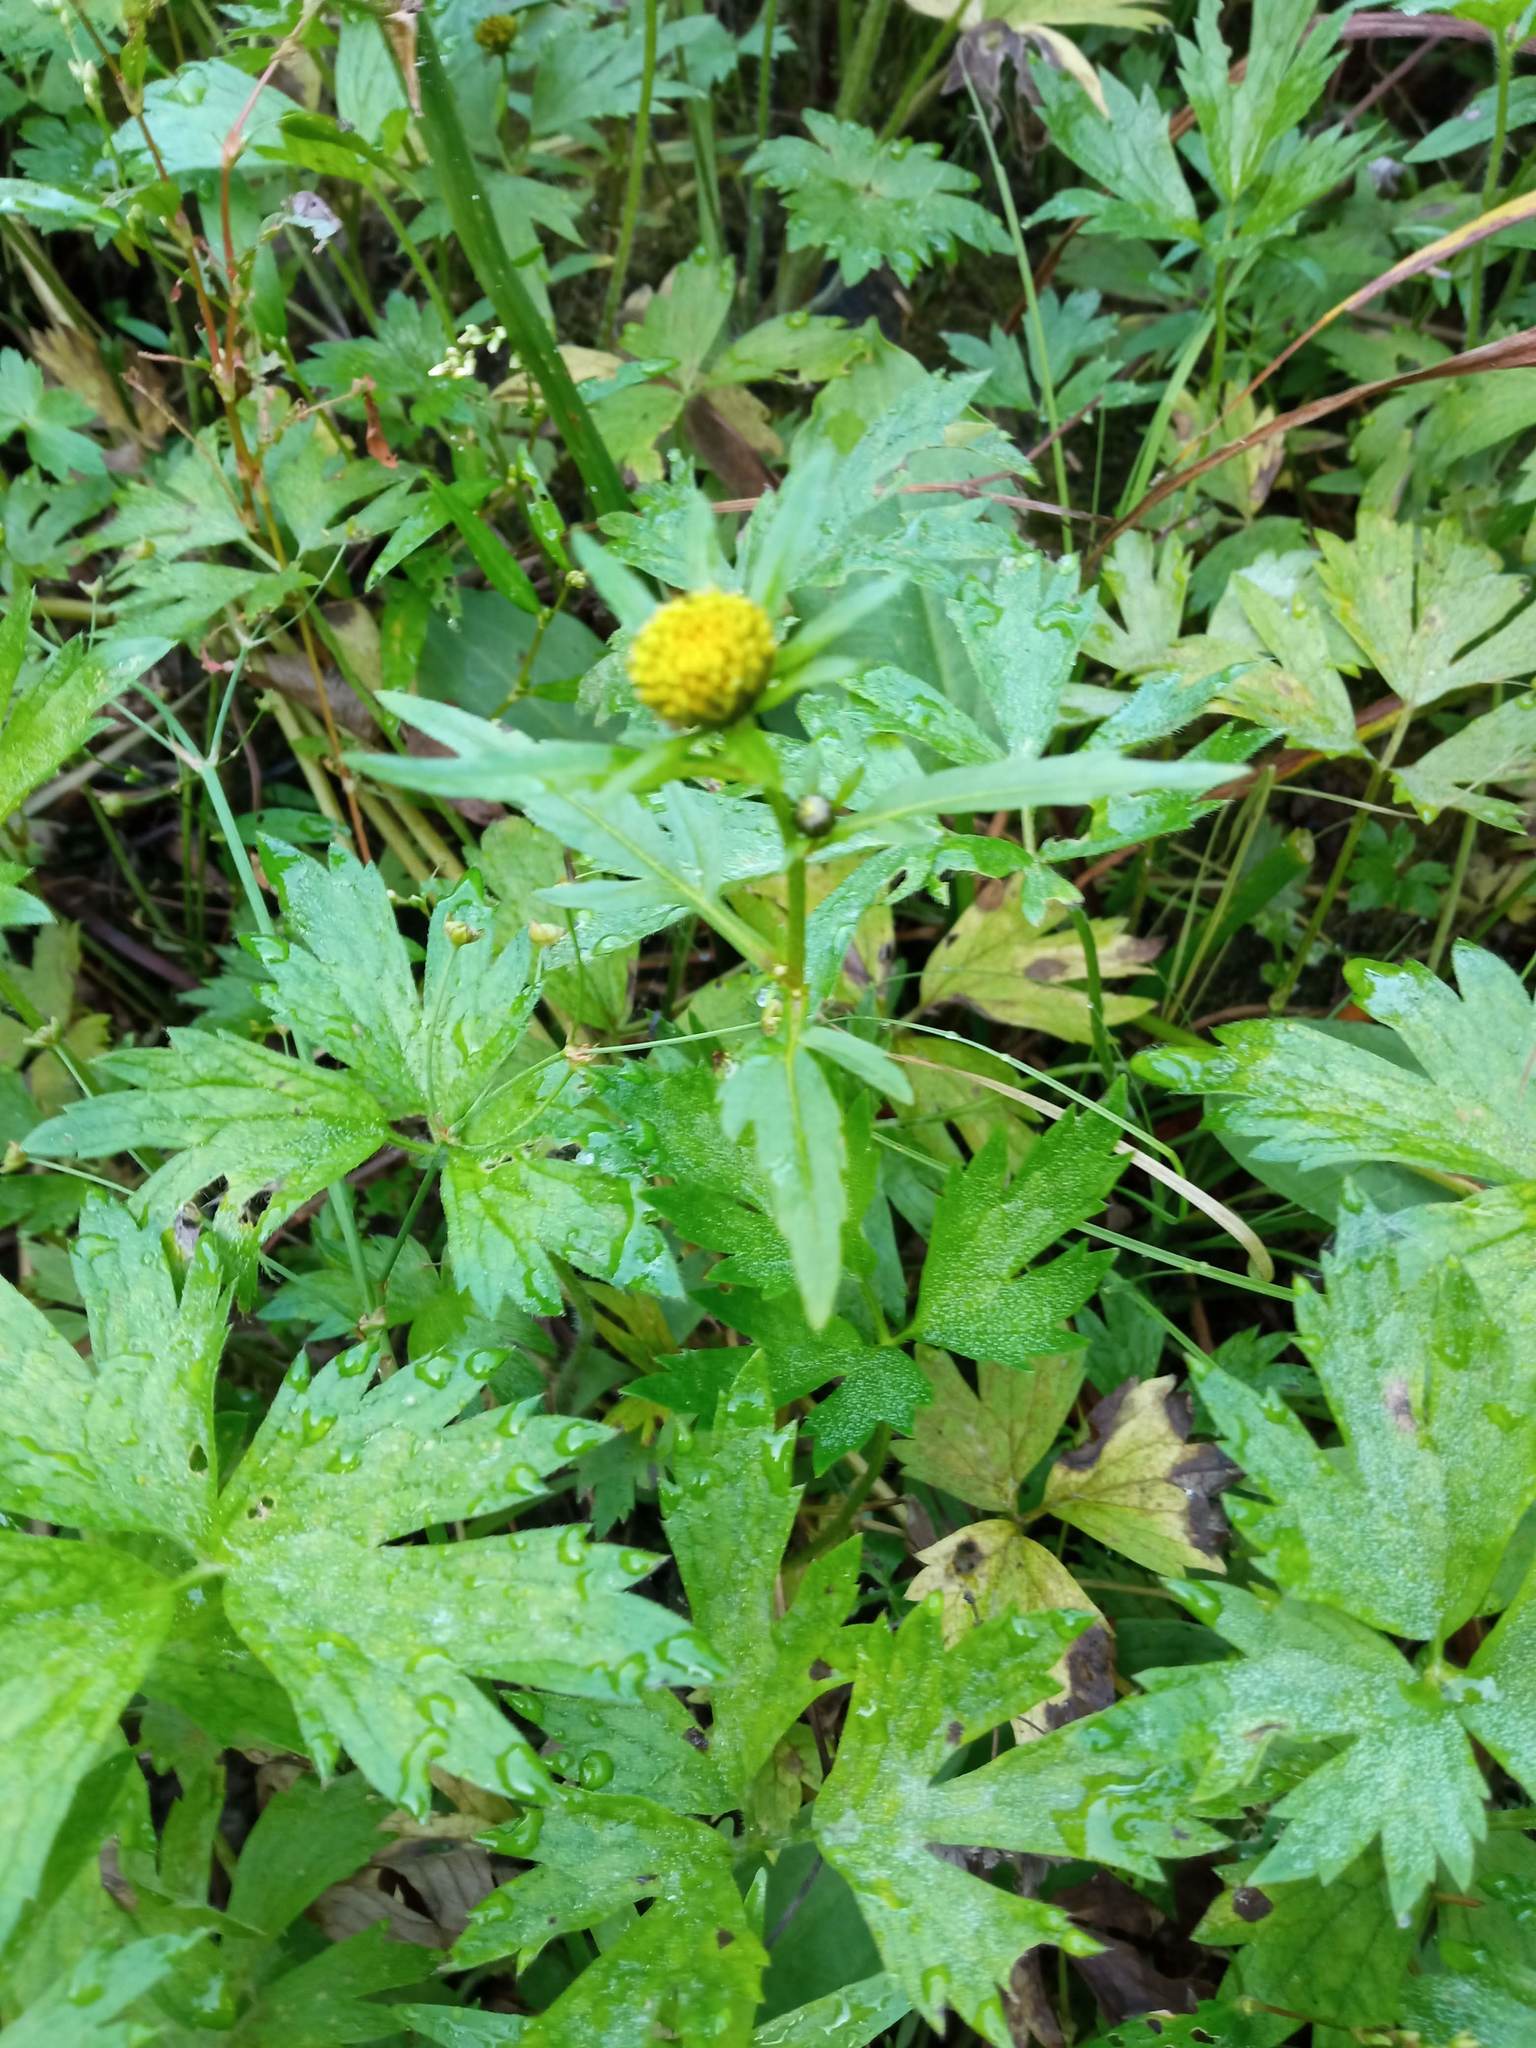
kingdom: Plantae
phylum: Tracheophyta
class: Magnoliopsida
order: Asterales
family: Asteraceae
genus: Bidens
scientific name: Bidens radiata
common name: Radiating bur-marigold
